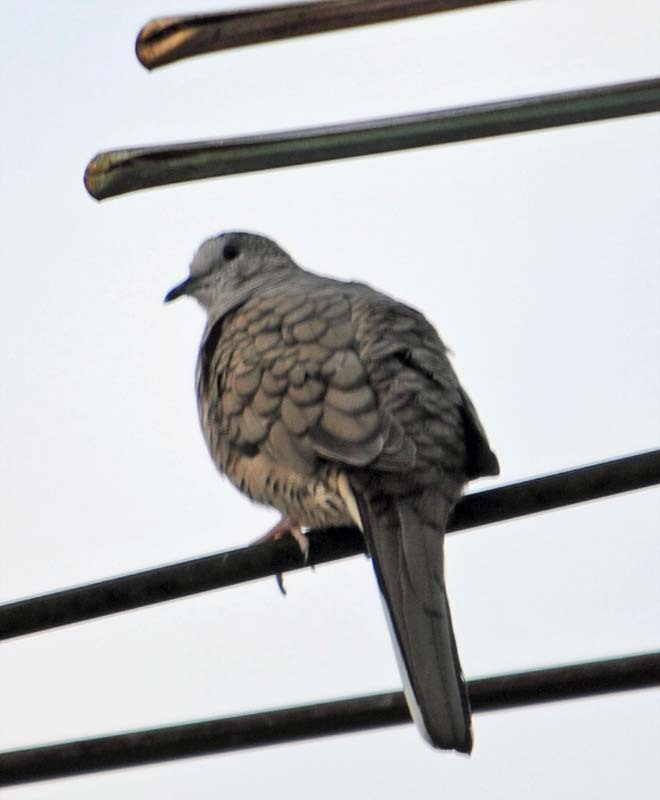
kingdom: Animalia
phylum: Chordata
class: Aves
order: Columbiformes
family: Columbidae
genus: Columbina
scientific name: Columbina inca
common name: Inca dove
